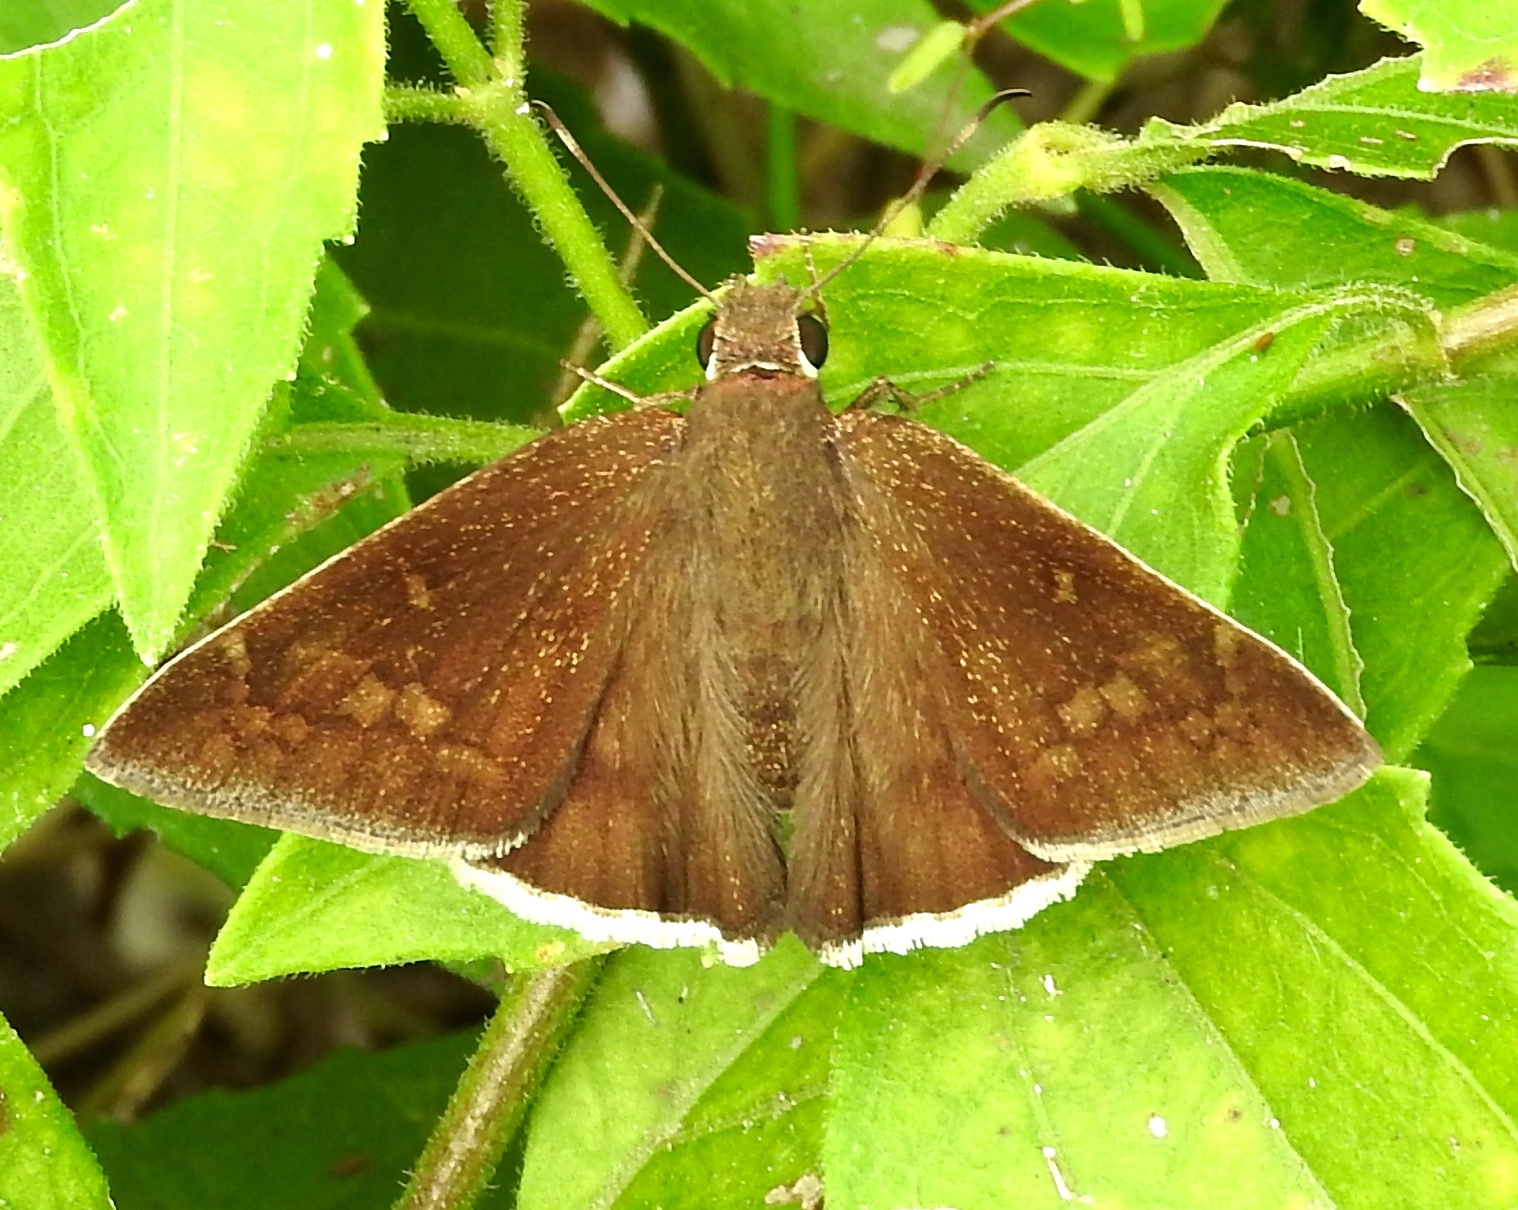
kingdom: Animalia
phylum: Arthropoda
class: Insecta
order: Lepidoptera
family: Hesperiidae
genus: Achalarus
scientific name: Achalarus Murgaria albociliatus
